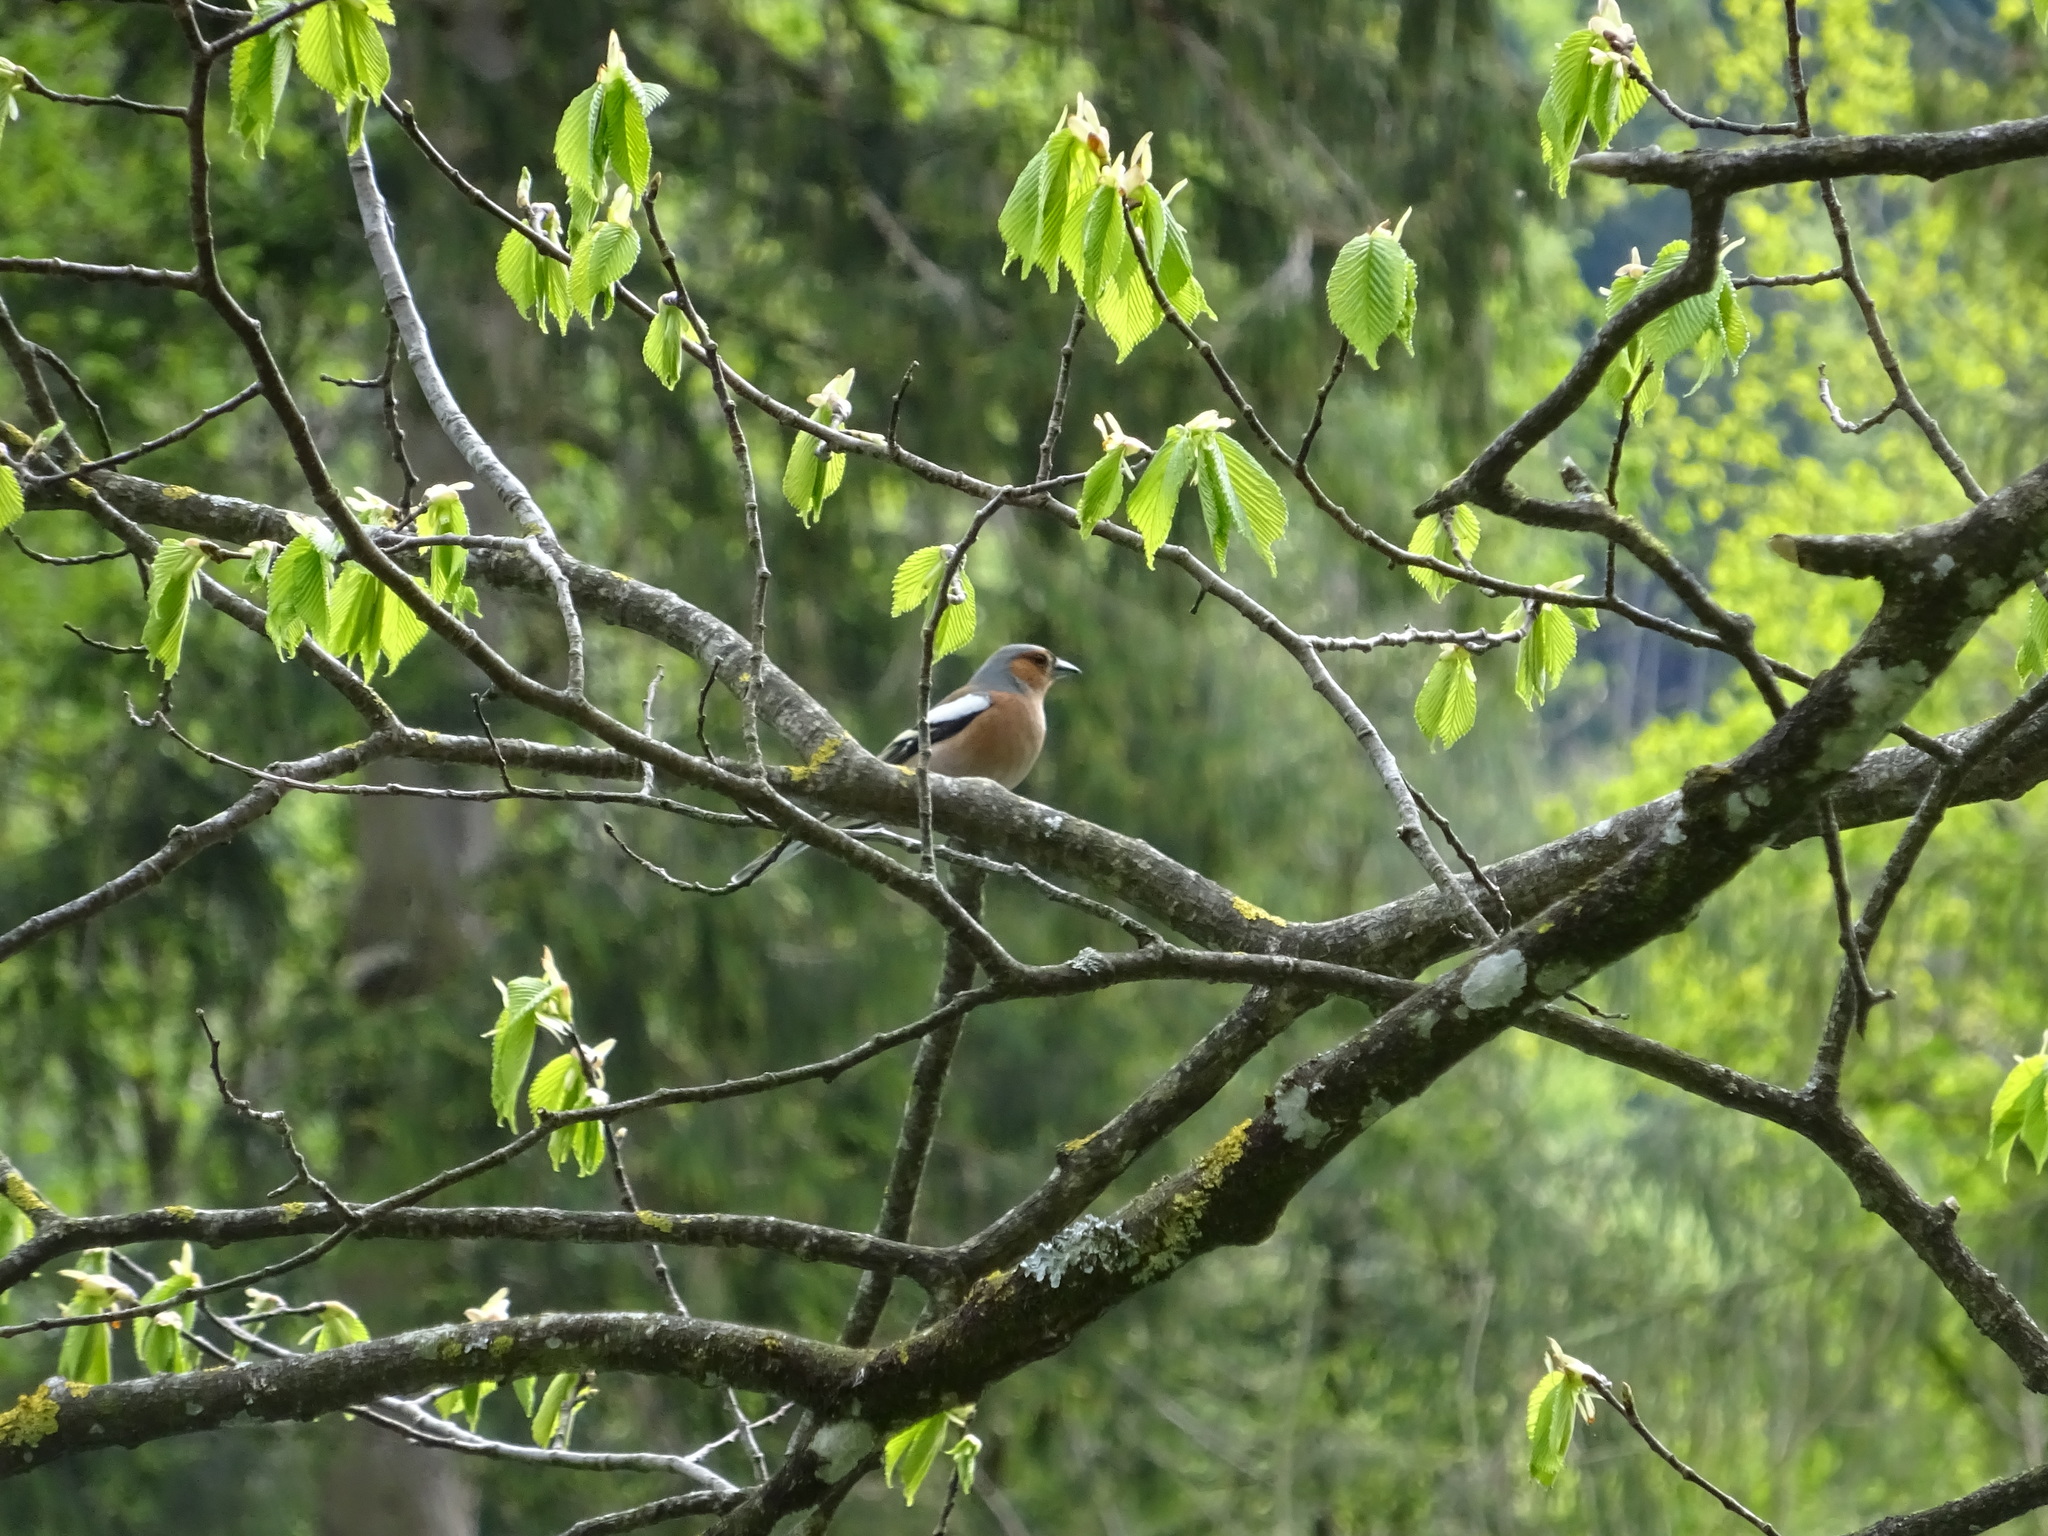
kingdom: Animalia
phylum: Chordata
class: Aves
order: Passeriformes
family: Fringillidae
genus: Fringilla
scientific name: Fringilla coelebs
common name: Common chaffinch
